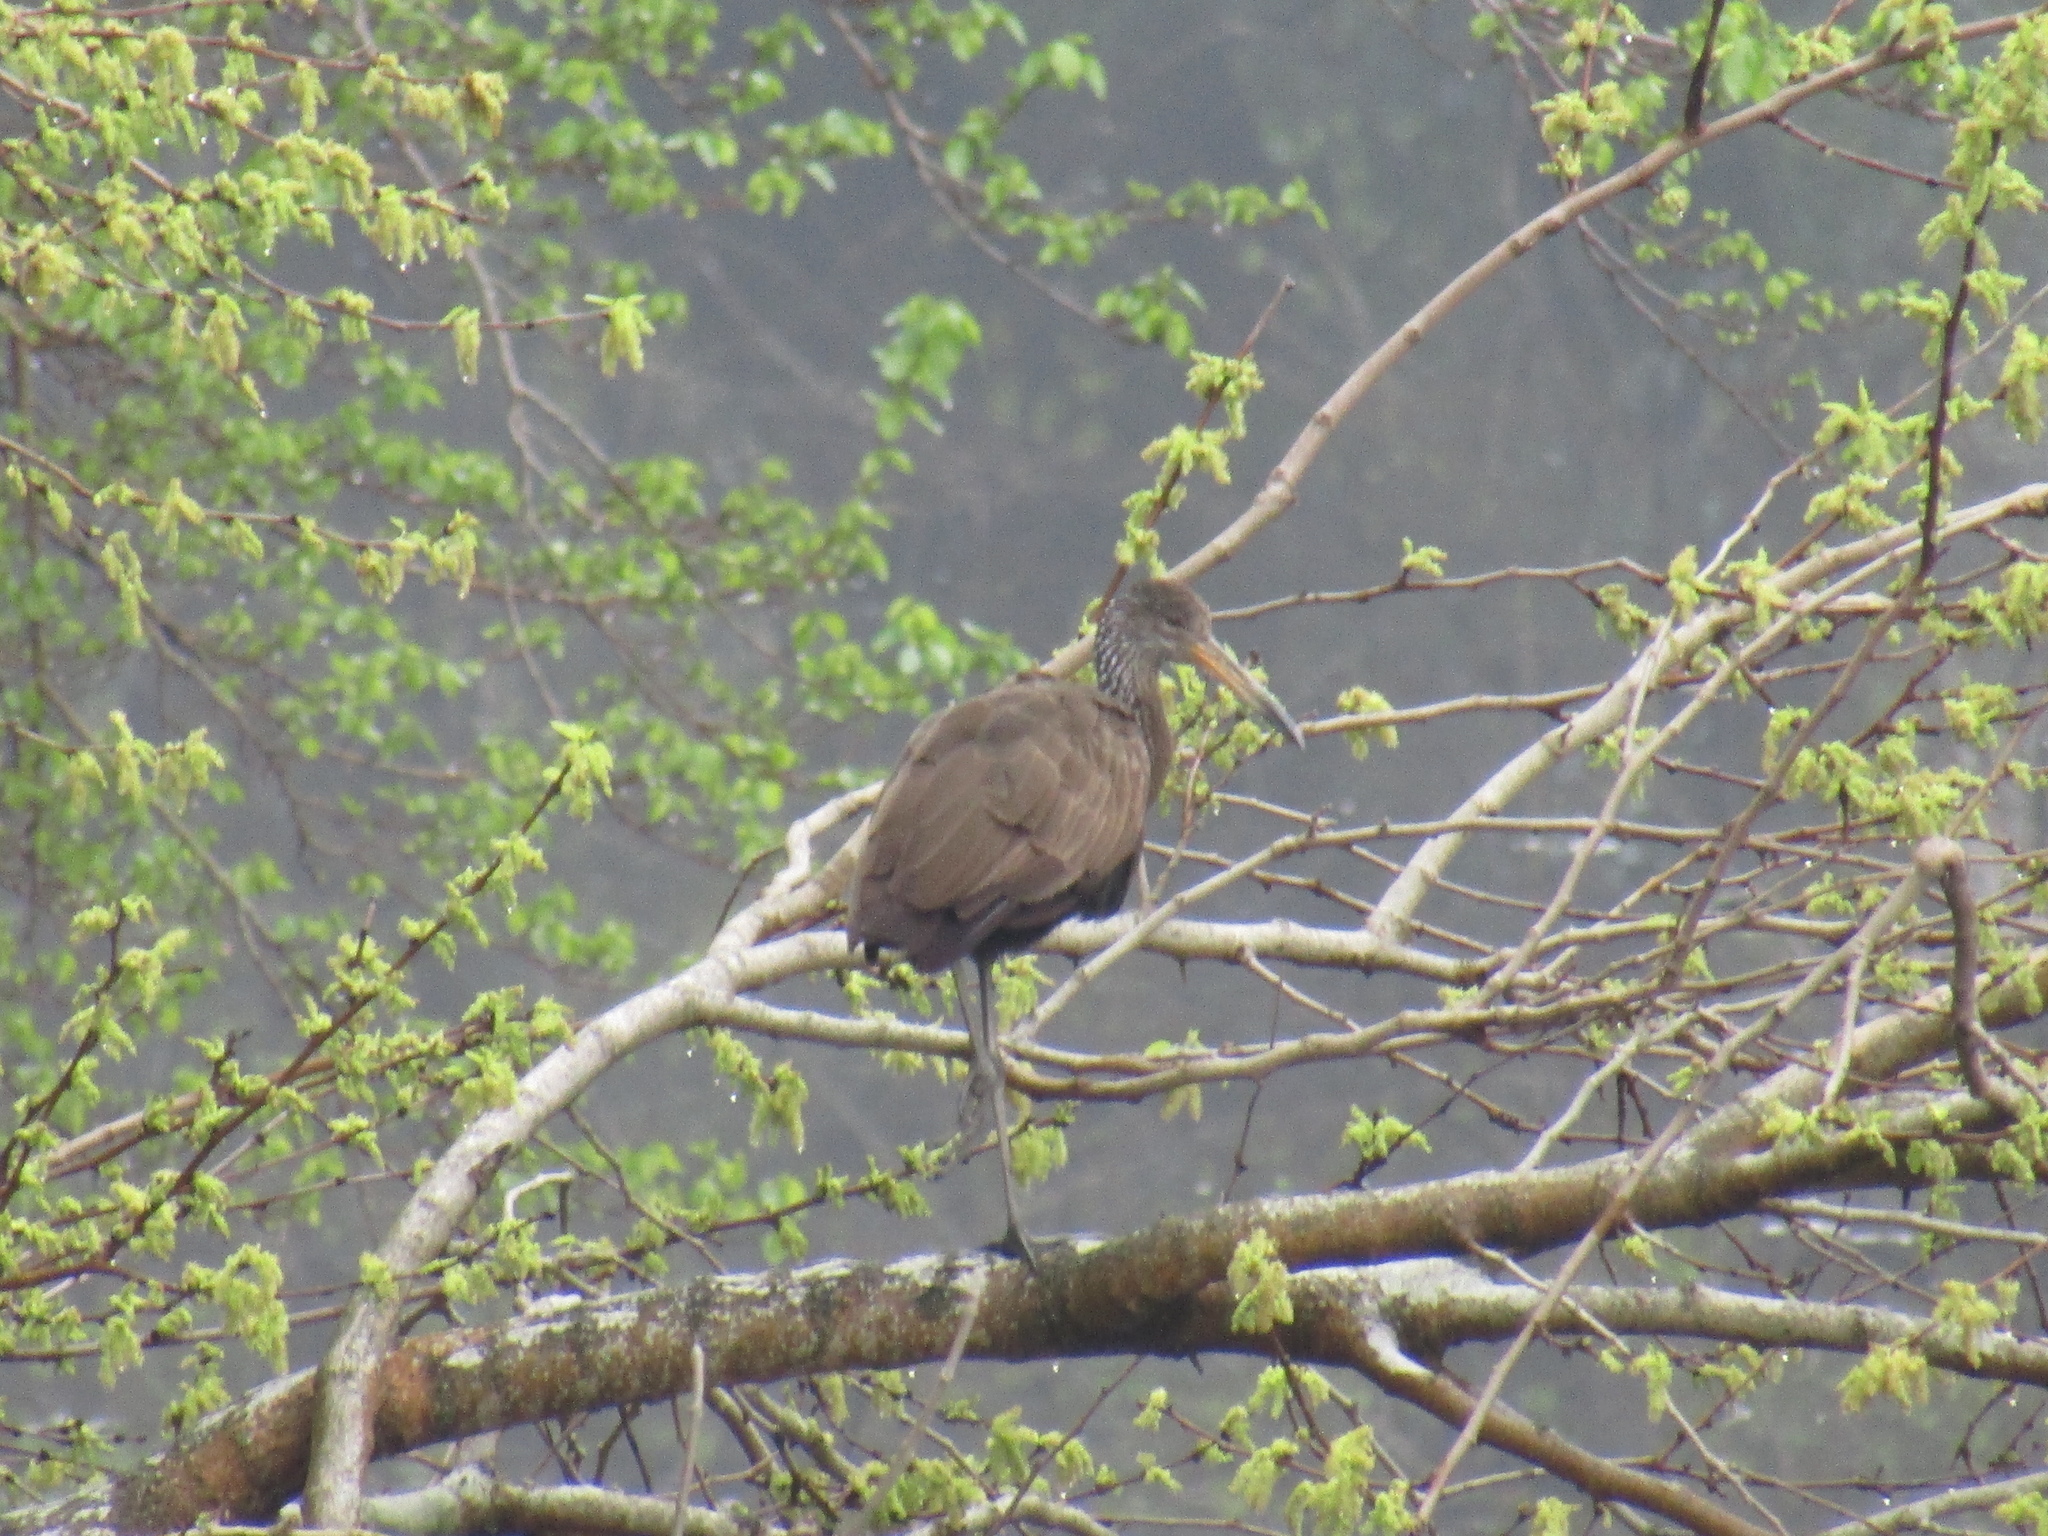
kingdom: Animalia
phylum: Chordata
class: Aves
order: Gruiformes
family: Aramidae
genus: Aramus
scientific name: Aramus guarauna
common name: Limpkin
